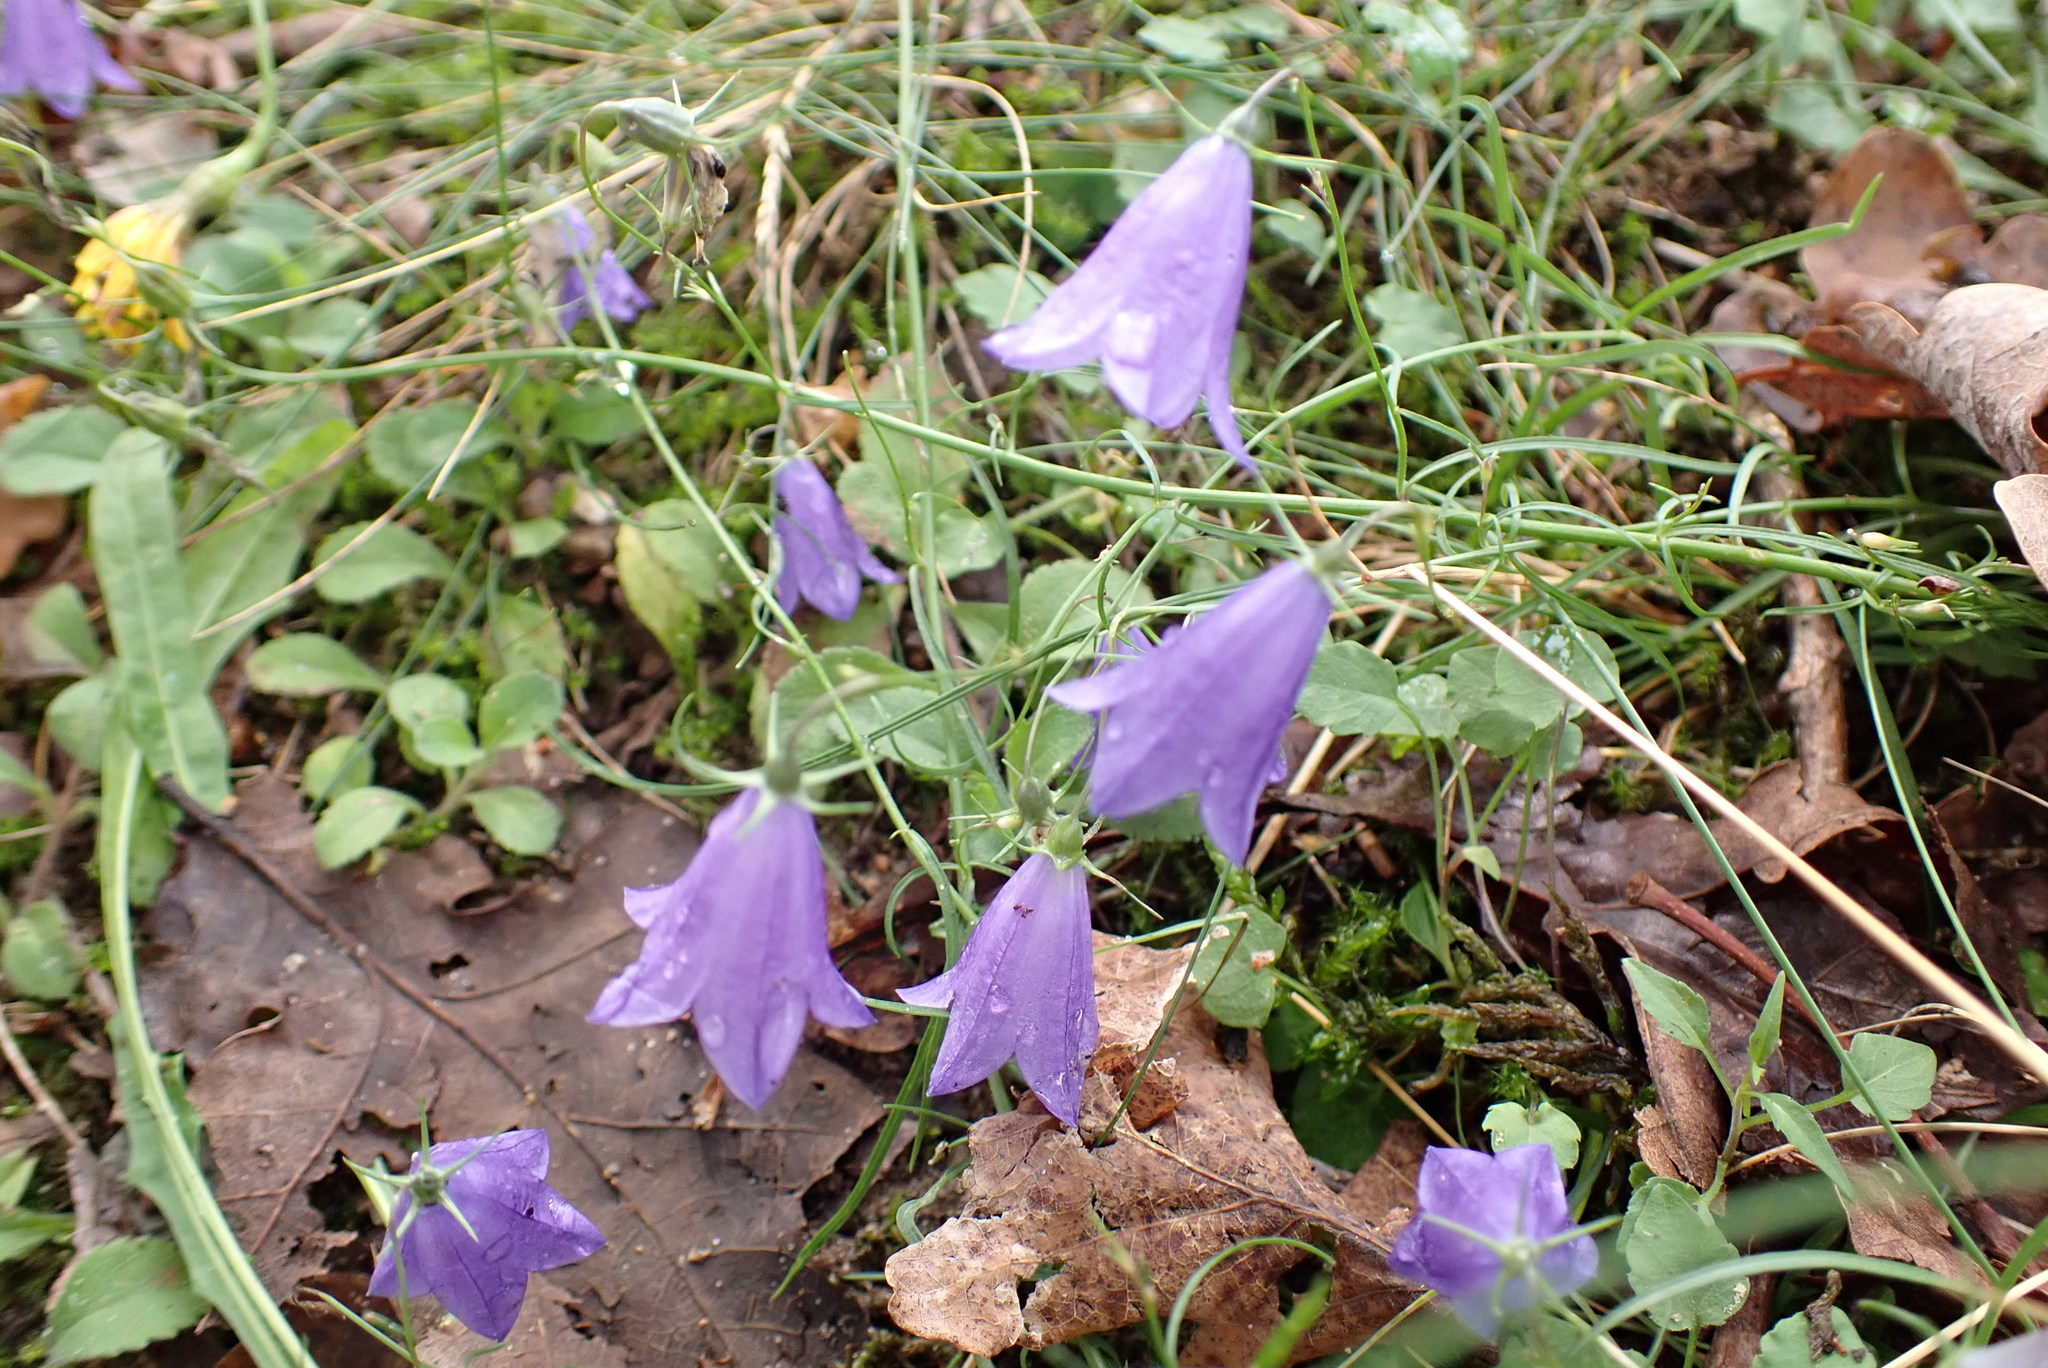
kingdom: Plantae
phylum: Tracheophyta
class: Magnoliopsida
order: Asterales
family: Campanulaceae
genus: Campanula
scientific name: Campanula rotundifolia
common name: Harebell
